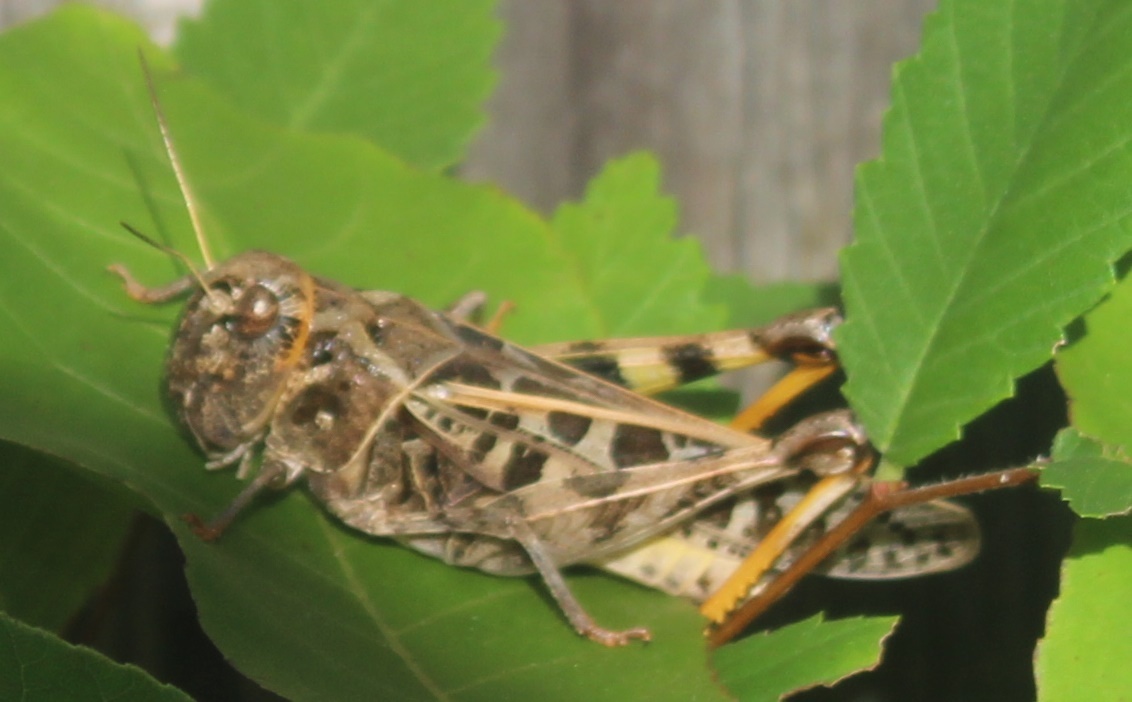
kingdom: Animalia
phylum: Arthropoda
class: Insecta
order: Orthoptera
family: Acrididae
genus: Hippiscus
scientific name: Hippiscus ocelote
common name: Wrinkled grasshopper
